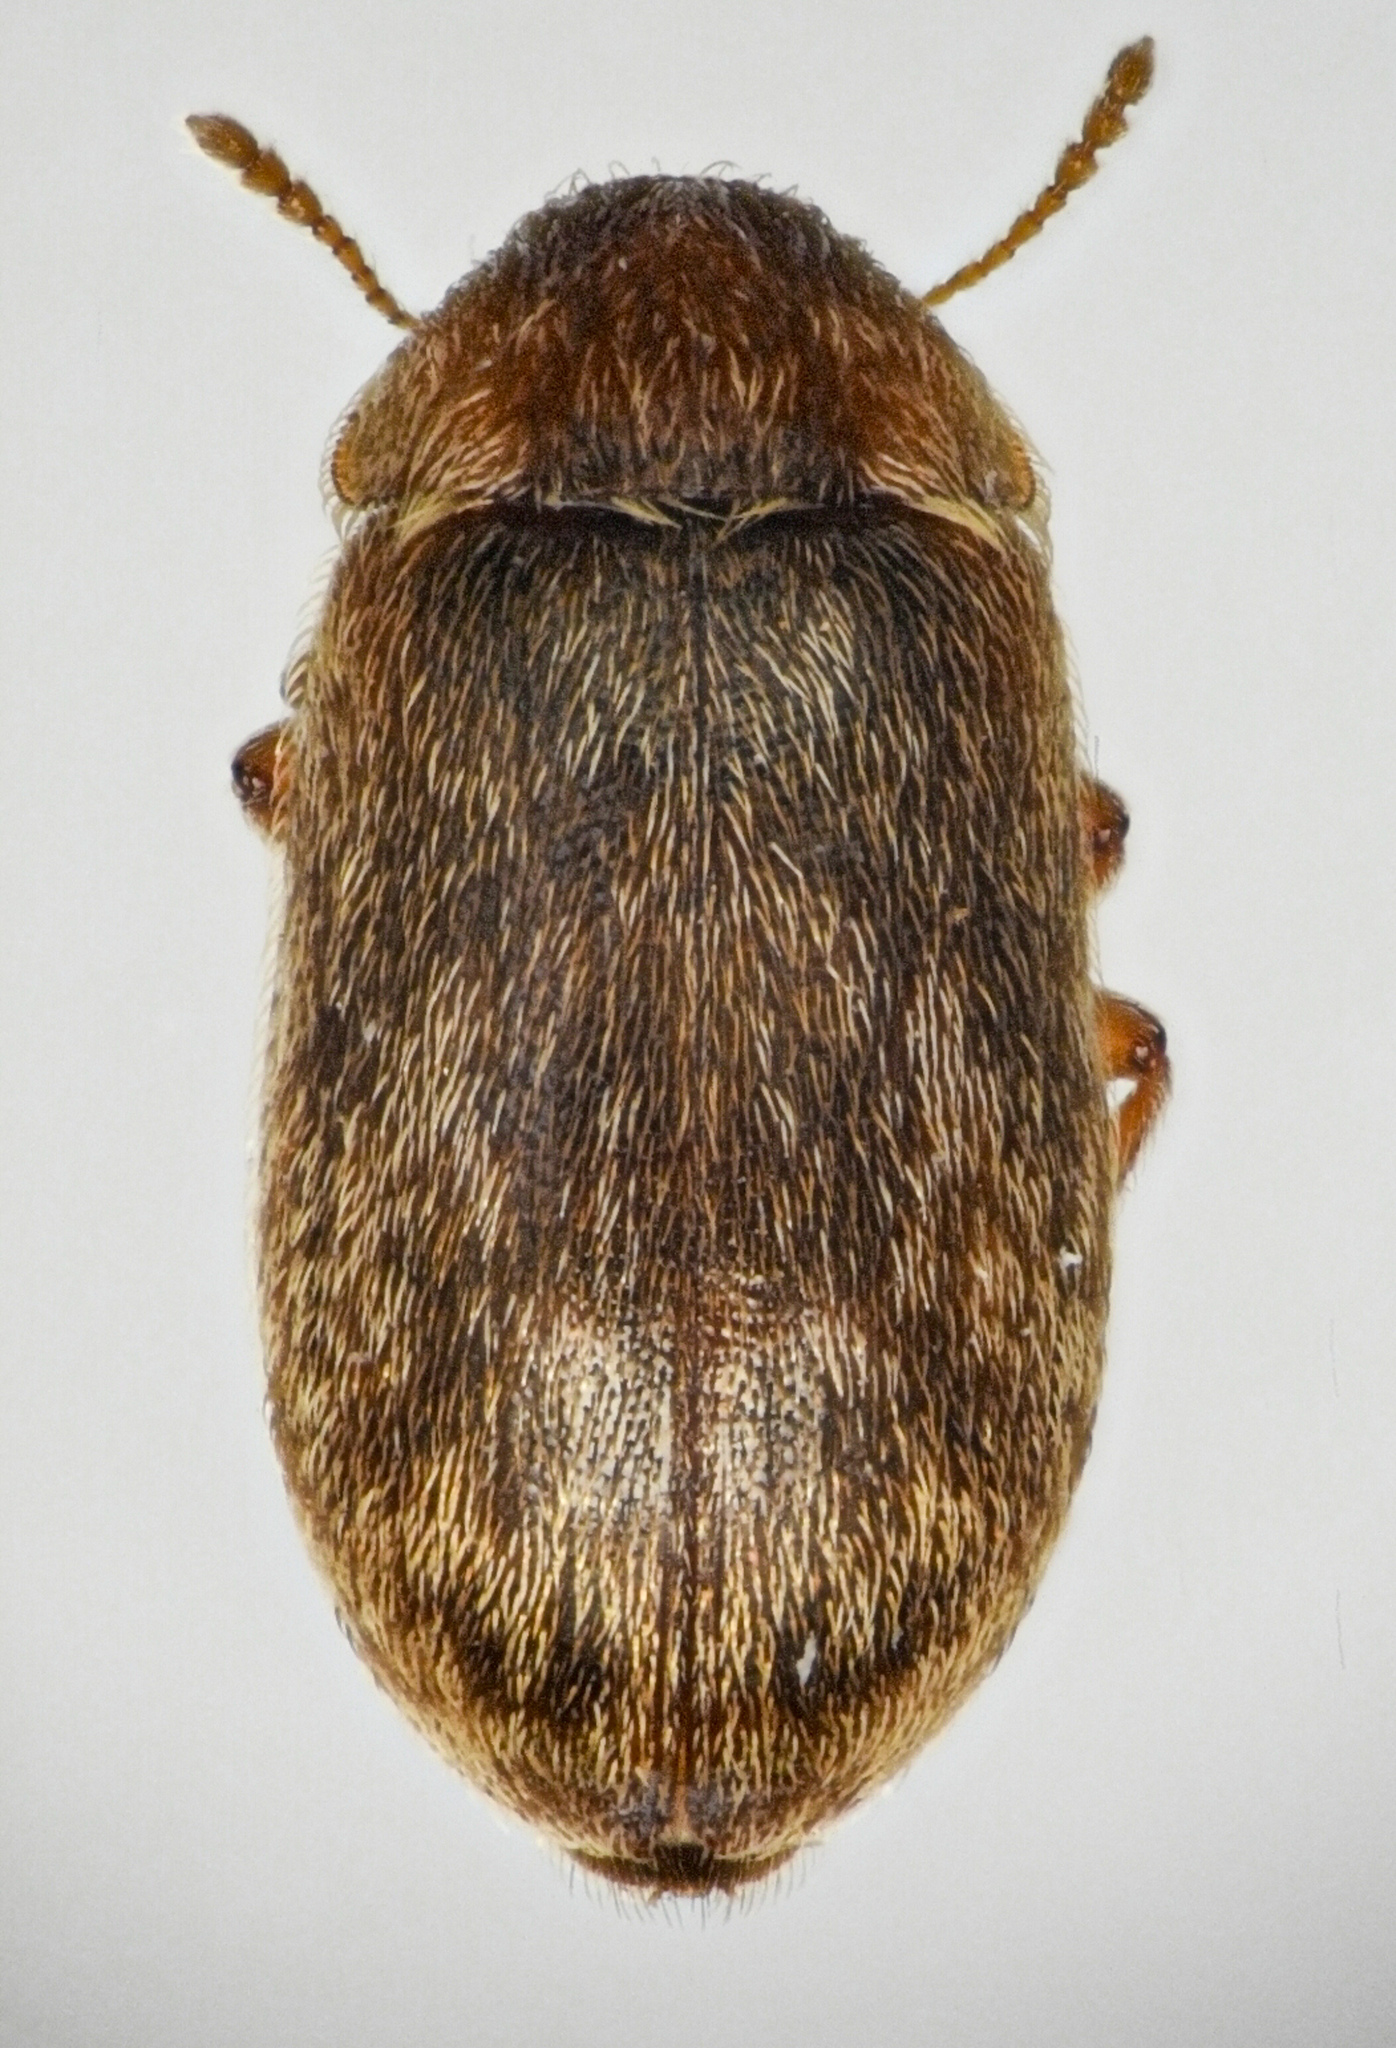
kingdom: Animalia
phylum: Arthropoda
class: Insecta
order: Coleoptera
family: Byturidae
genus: Xerasia
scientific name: Xerasia grisescens
